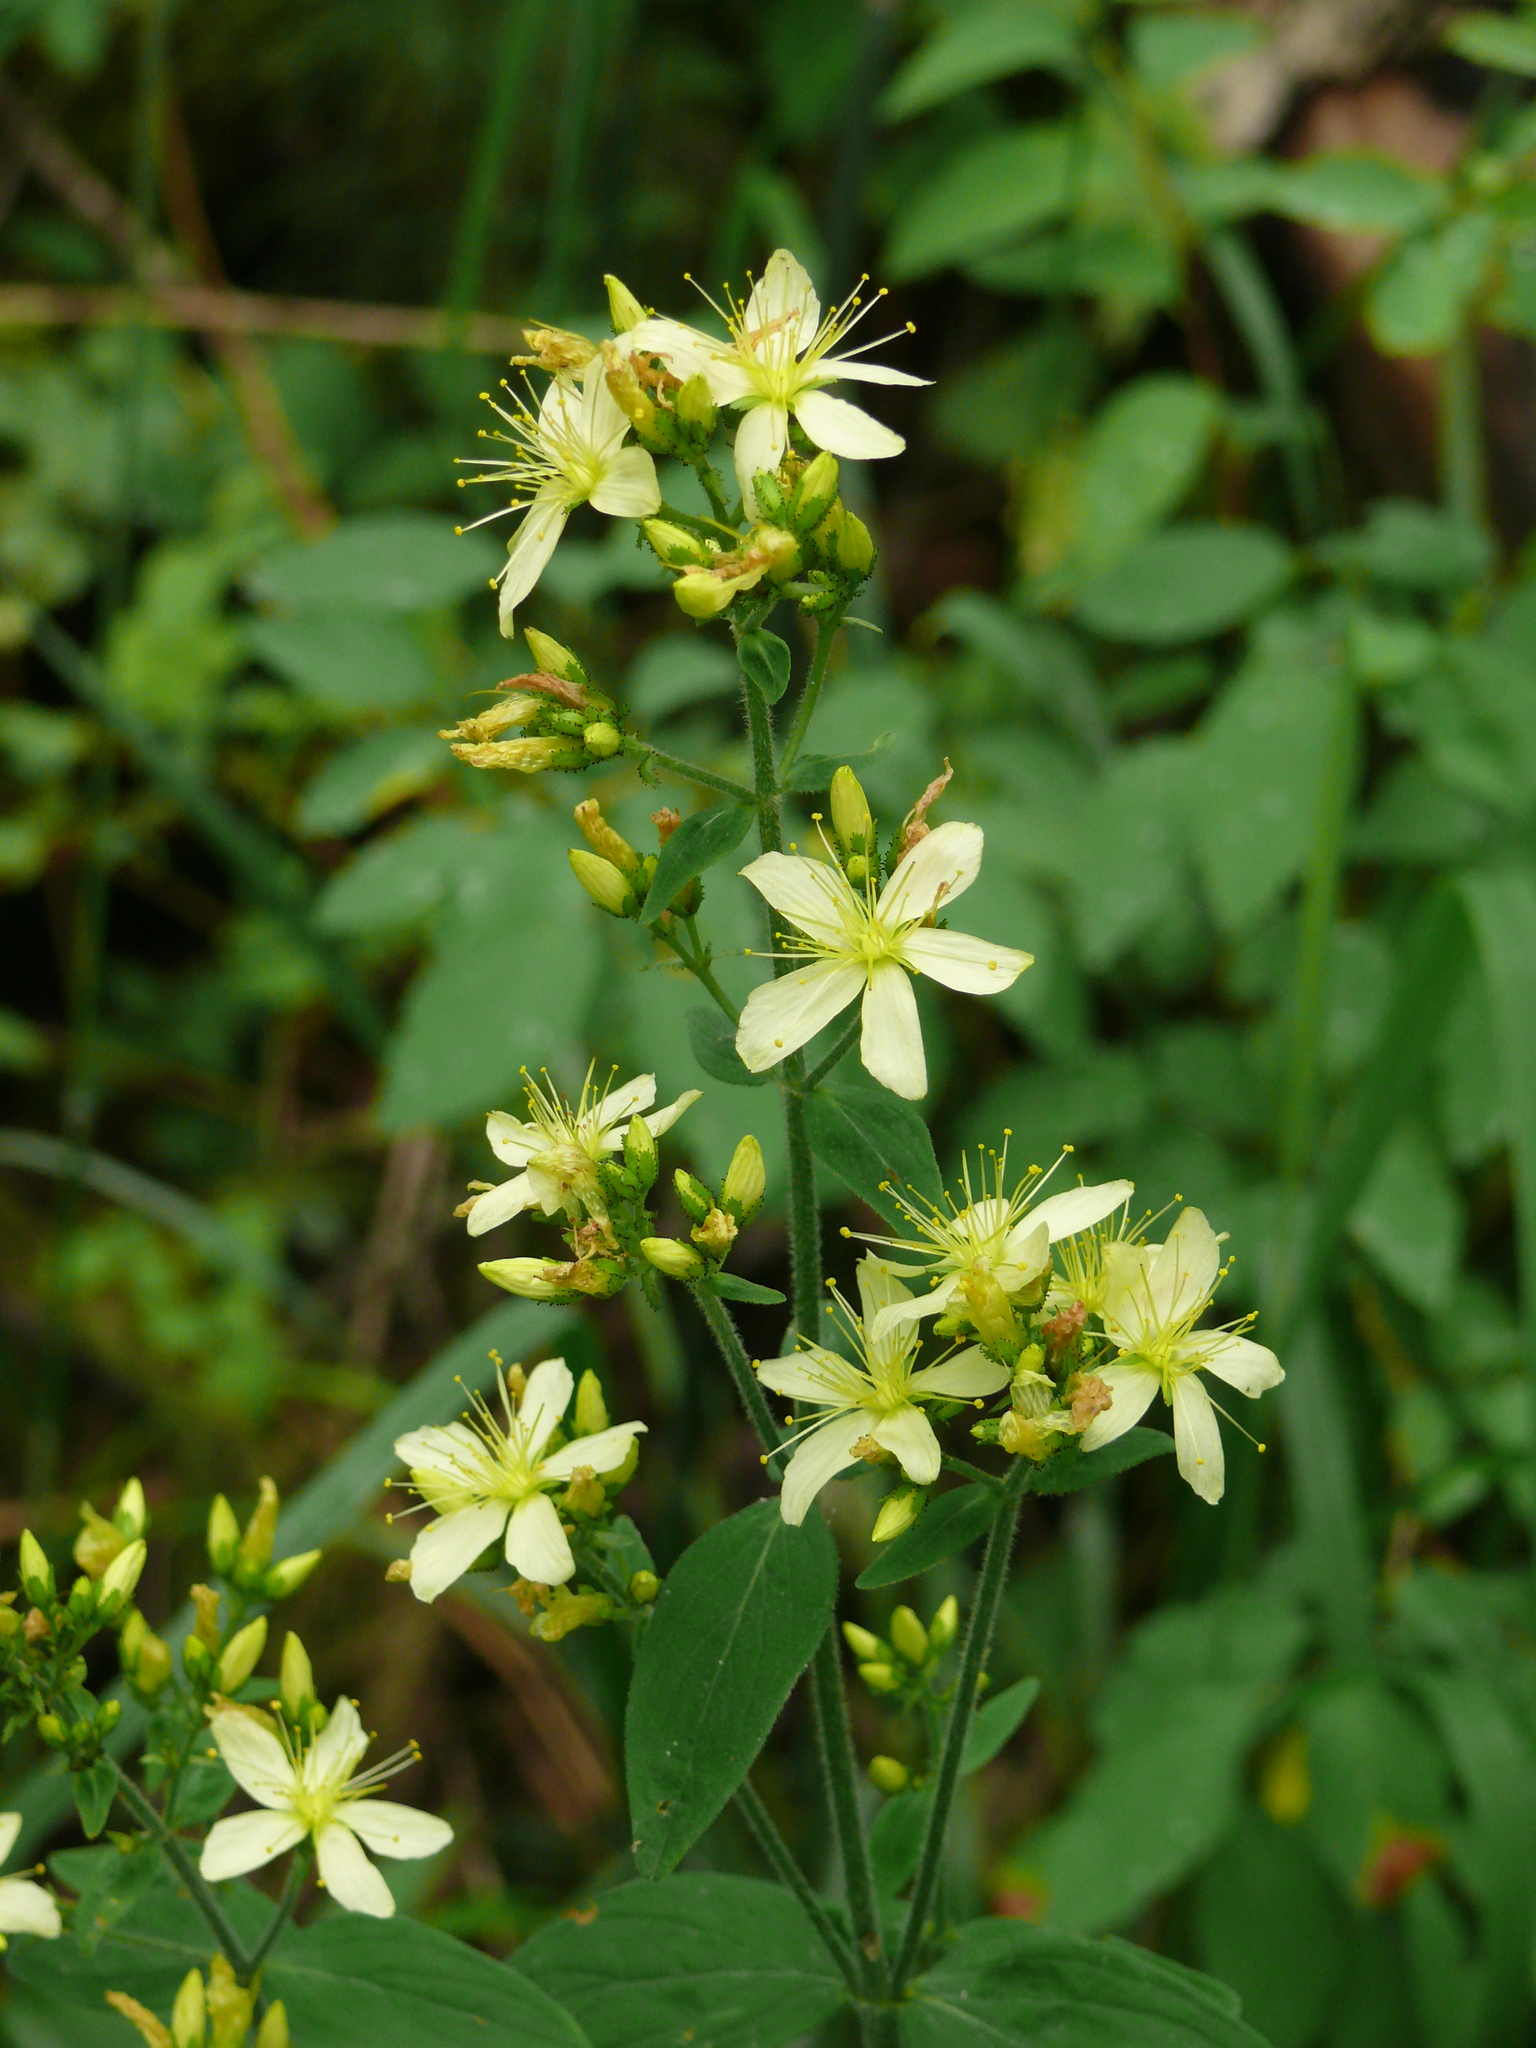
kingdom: Plantae
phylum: Tracheophyta
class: Magnoliopsida
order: Malpighiales
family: Hypericaceae
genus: Hypericum
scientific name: Hypericum hirsutum
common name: Hairy st. john's-wort
